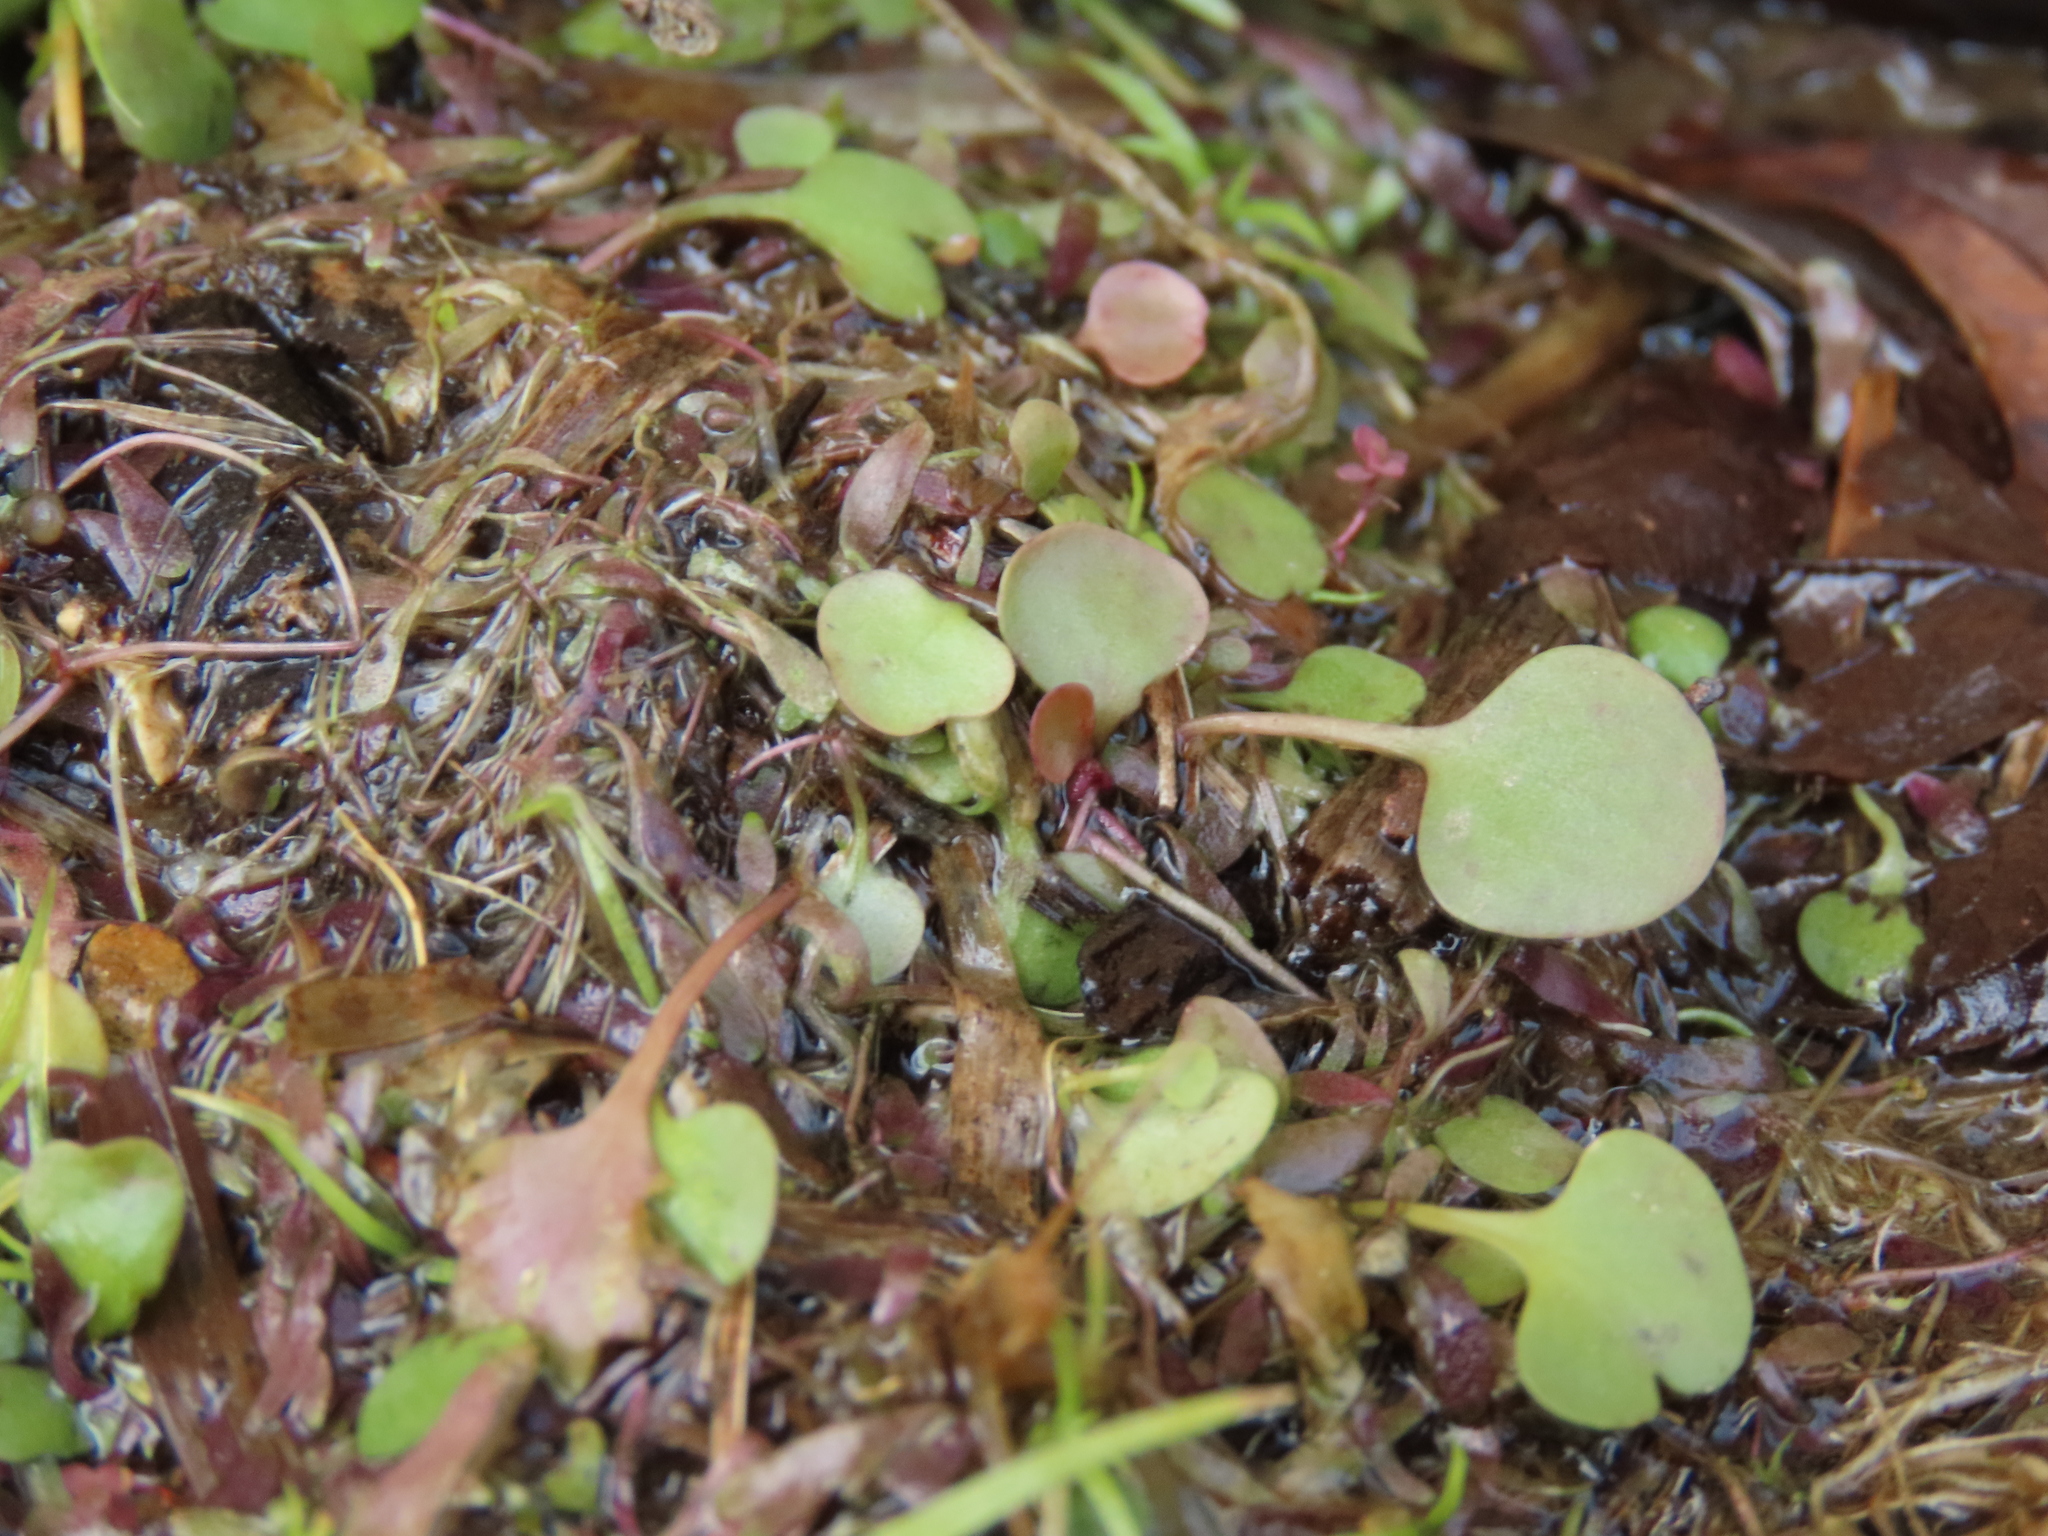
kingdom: Plantae
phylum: Tracheophyta
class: Magnoliopsida
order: Lamiales
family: Lentibulariaceae
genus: Utricularia
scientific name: Utricularia tricolor
